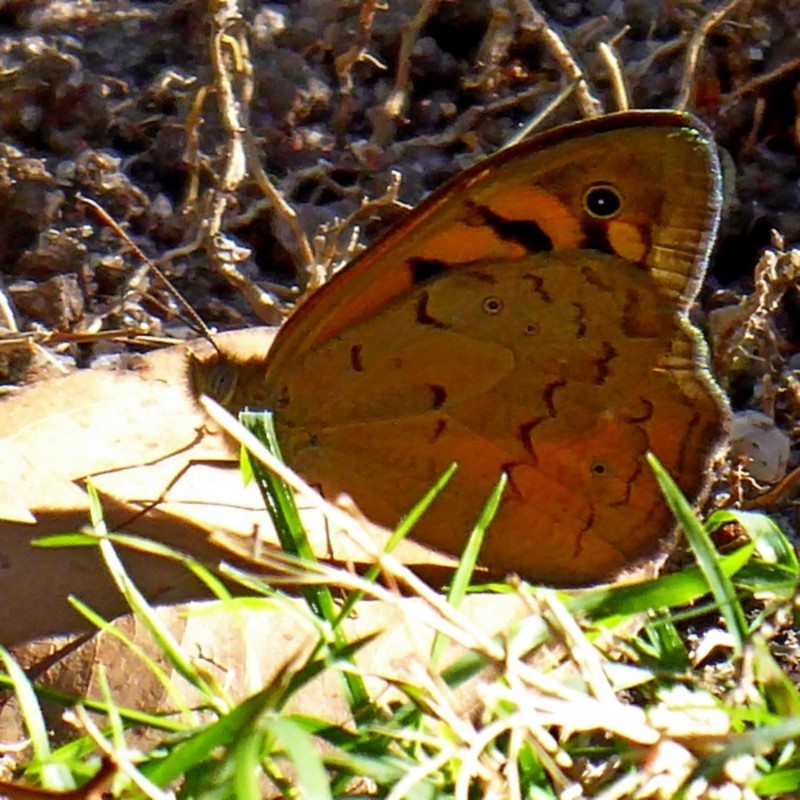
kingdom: Animalia
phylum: Arthropoda
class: Insecta
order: Lepidoptera
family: Nymphalidae
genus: Heteronympha
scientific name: Heteronympha merope
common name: Common brown
